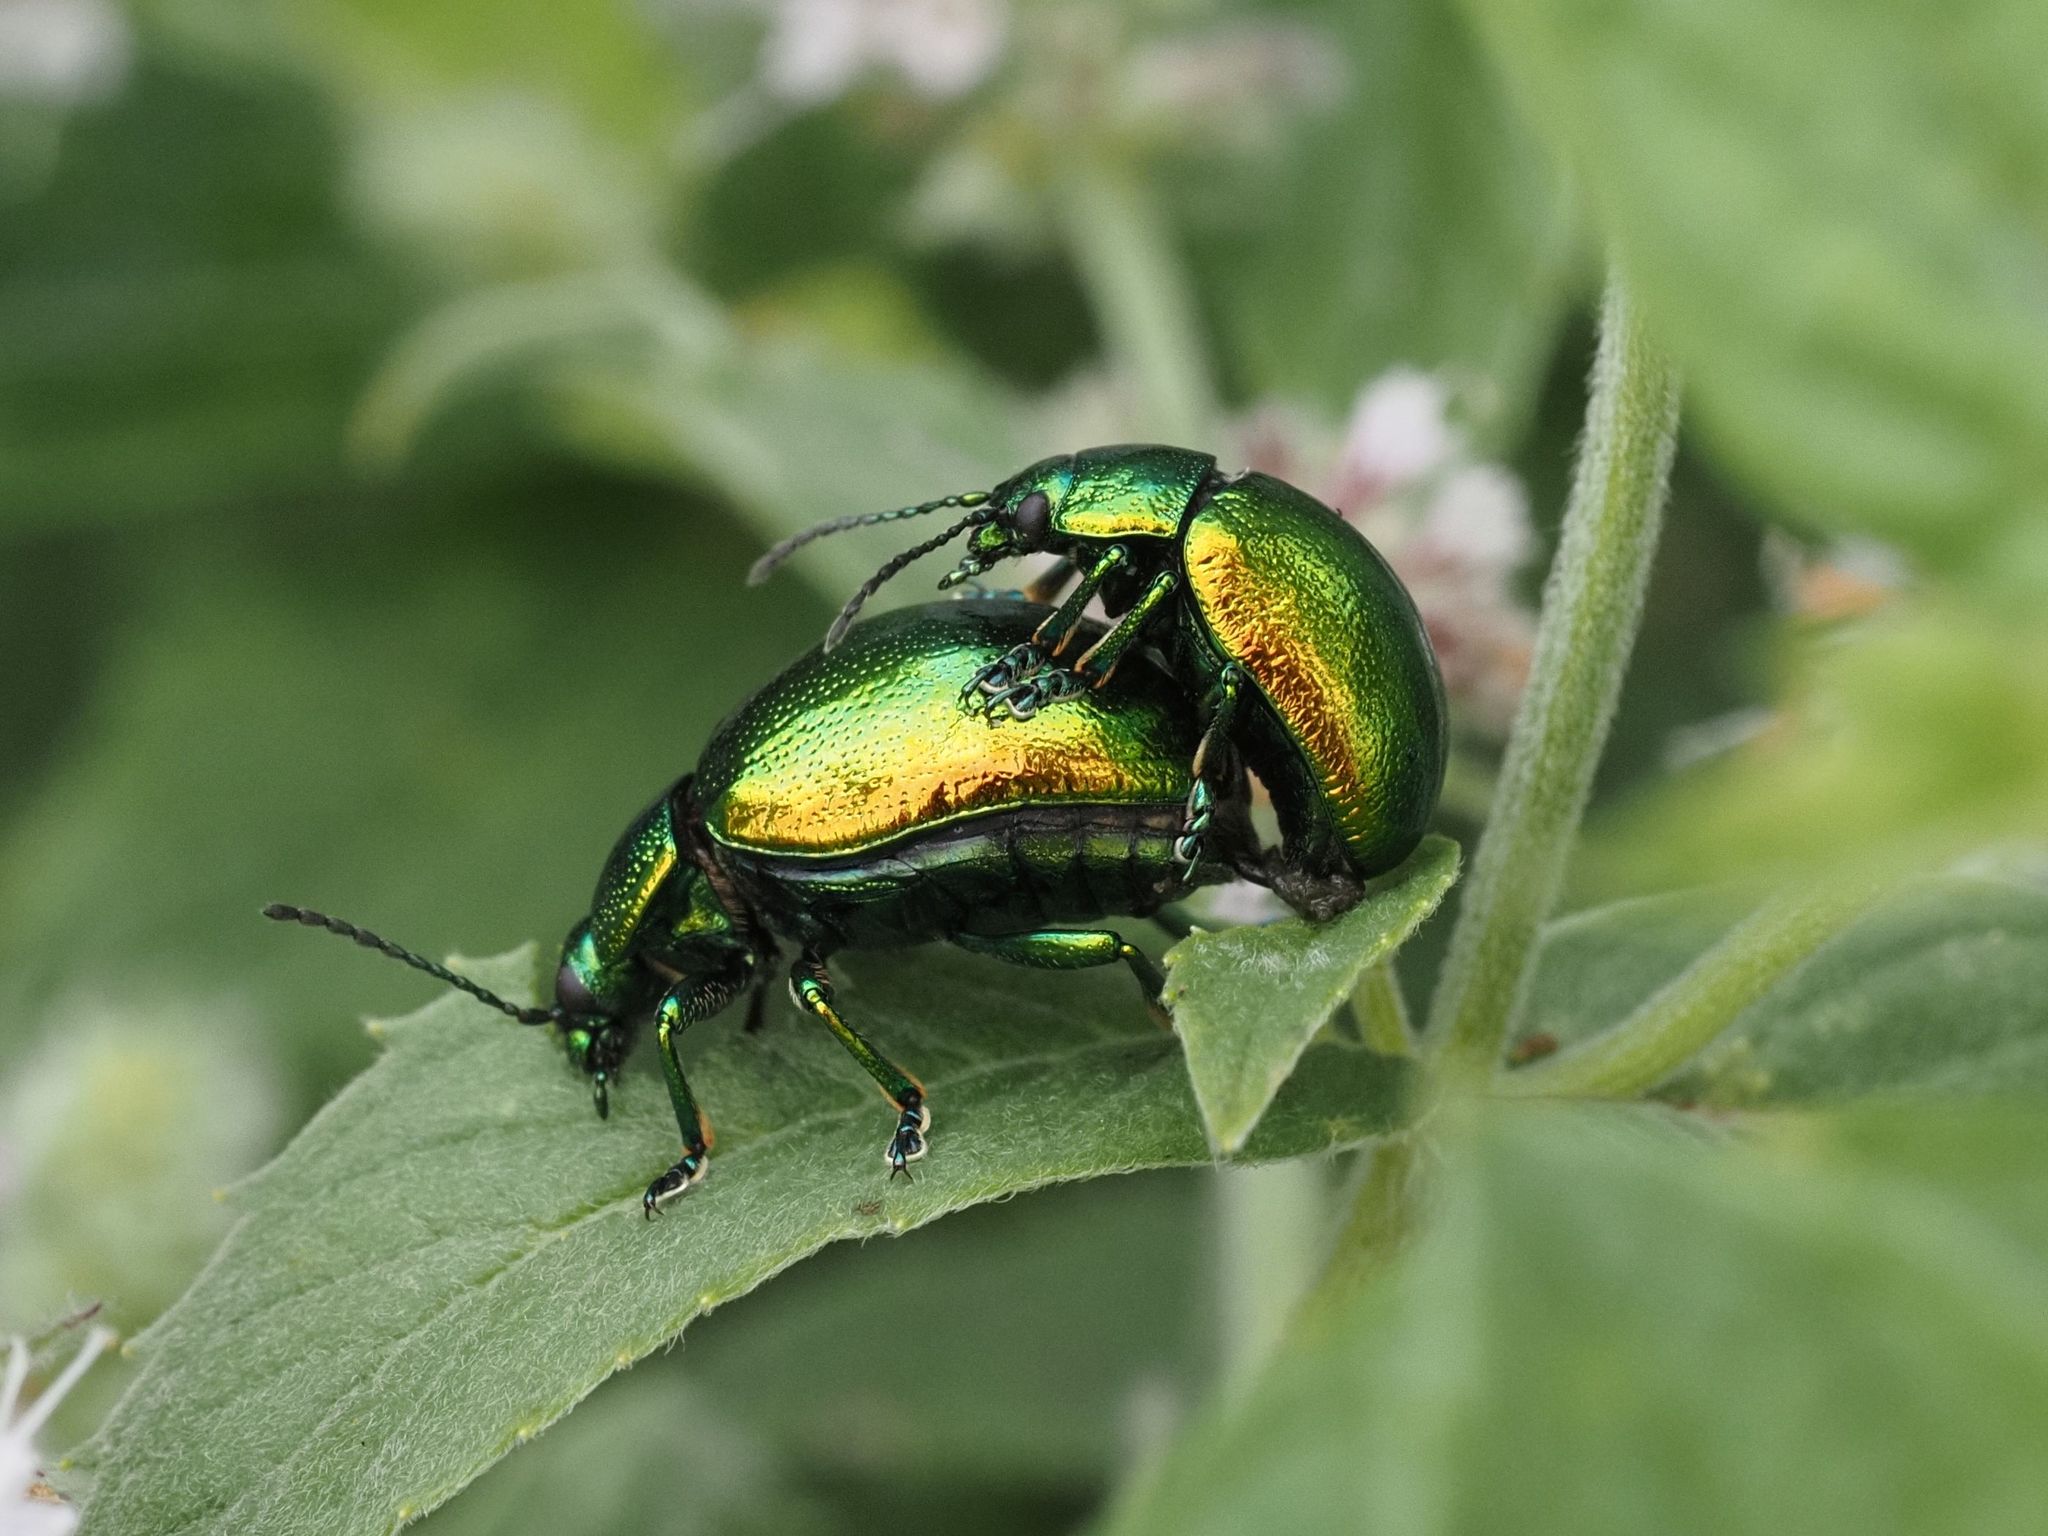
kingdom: Animalia
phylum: Arthropoda
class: Insecta
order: Coleoptera
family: Chrysomelidae
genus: Chrysolina
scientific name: Chrysolina herbacea
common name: Mint leaf beatle
